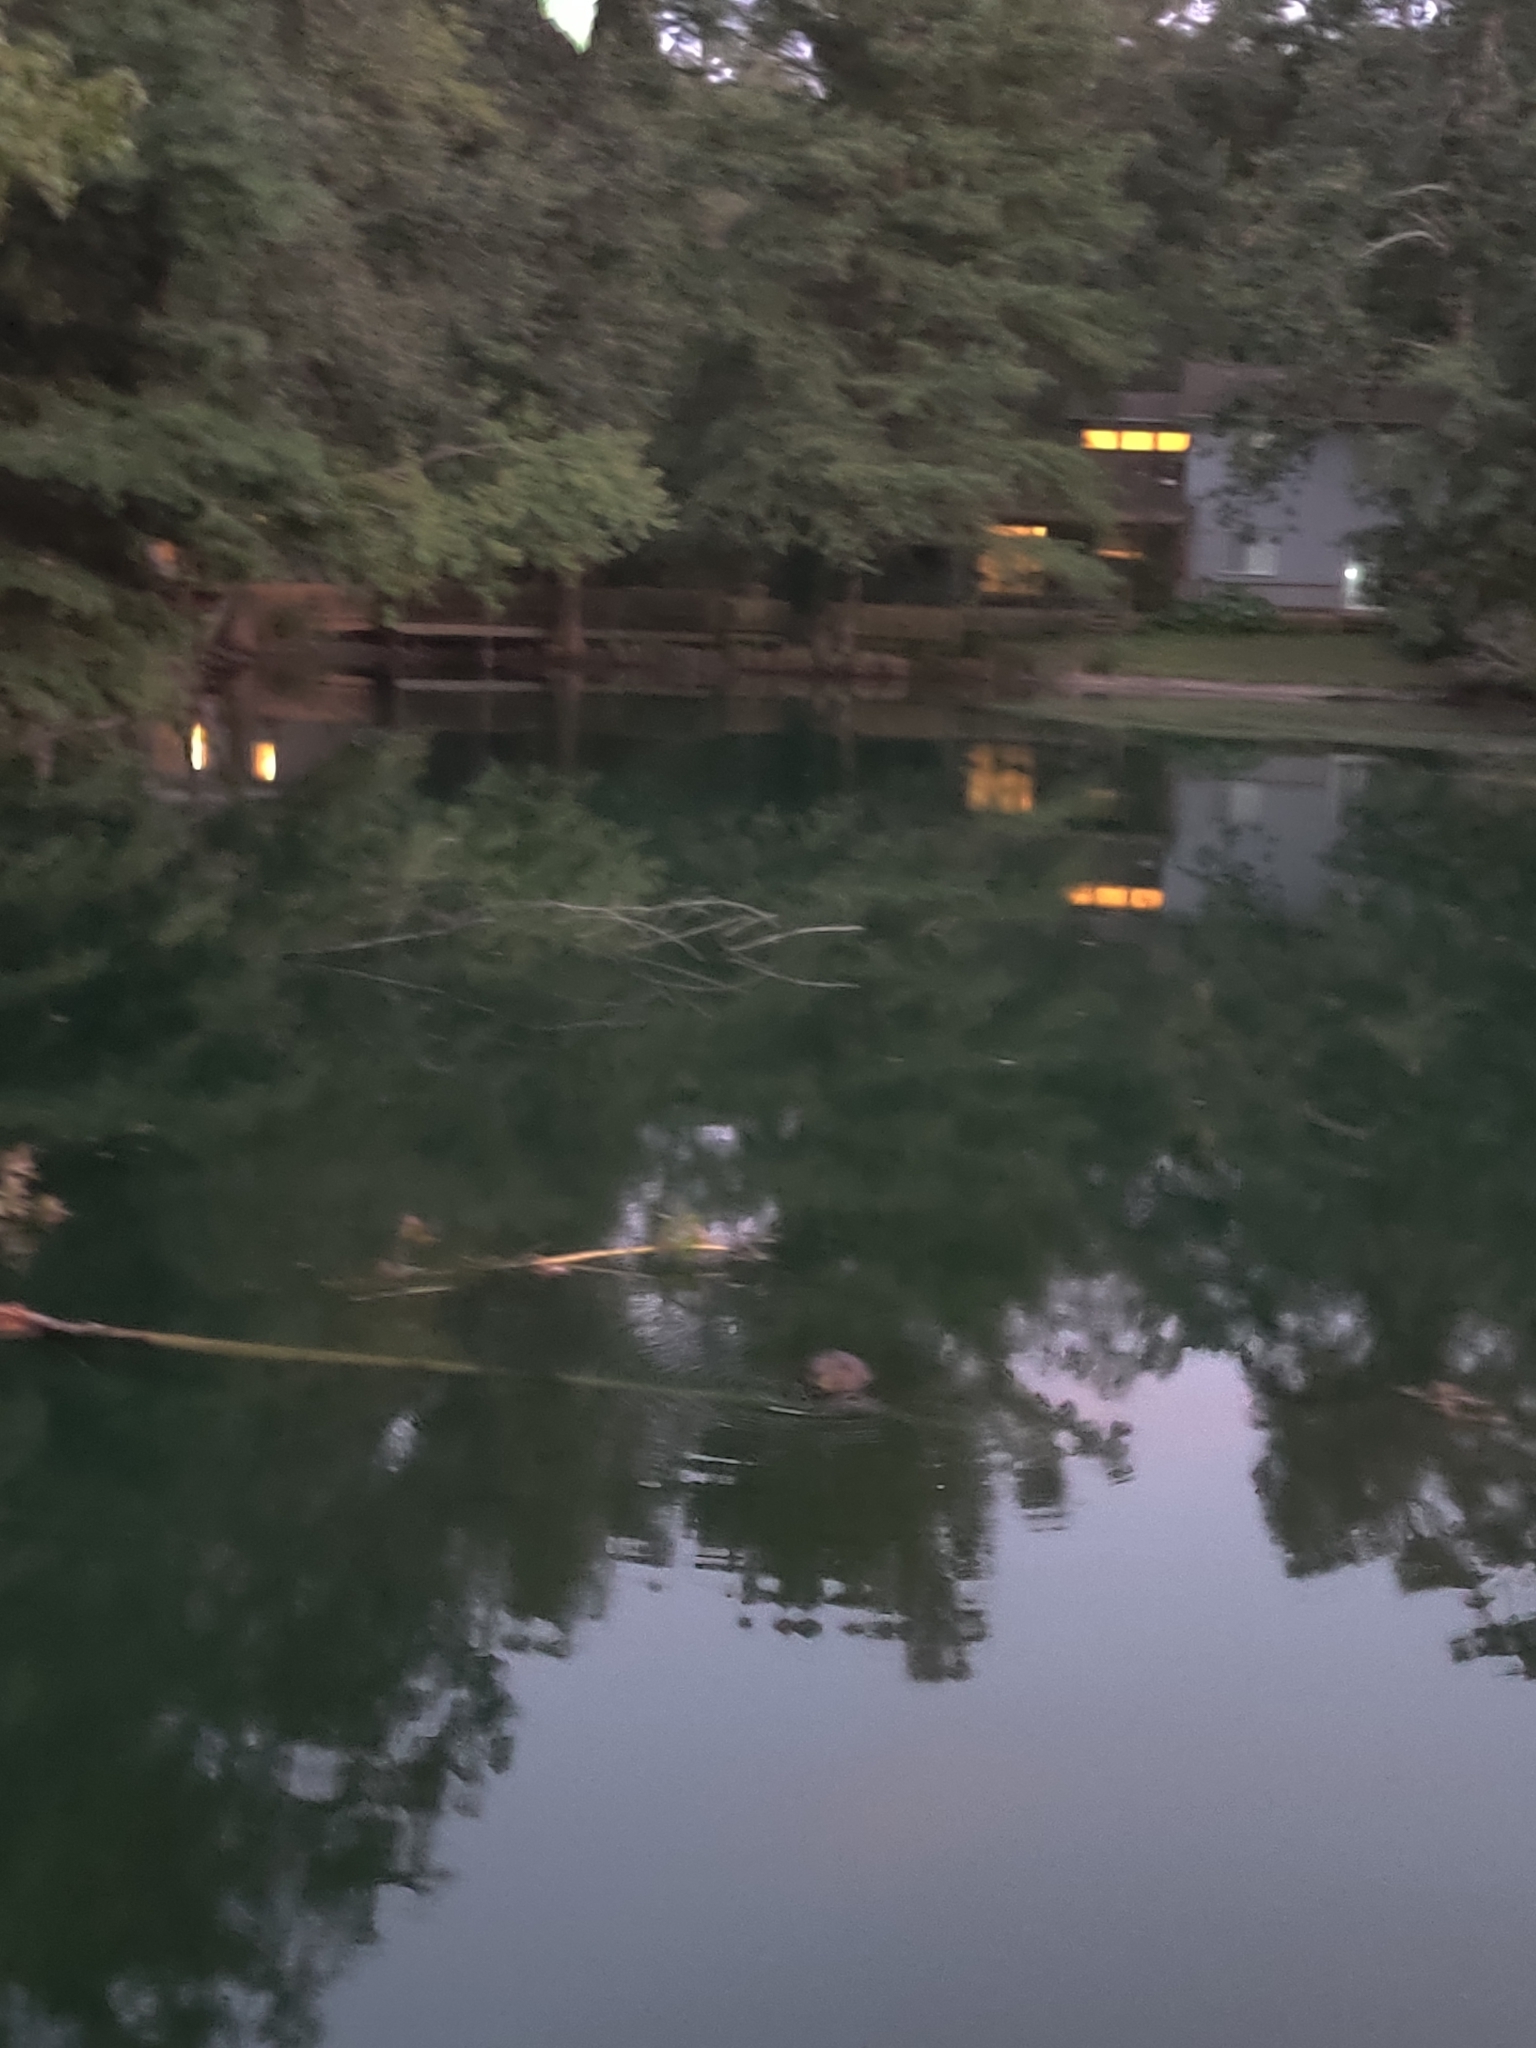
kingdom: Animalia
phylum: Chordata
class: Mammalia
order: Rodentia
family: Castoridae
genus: Castor
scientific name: Castor canadensis
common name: American beaver
